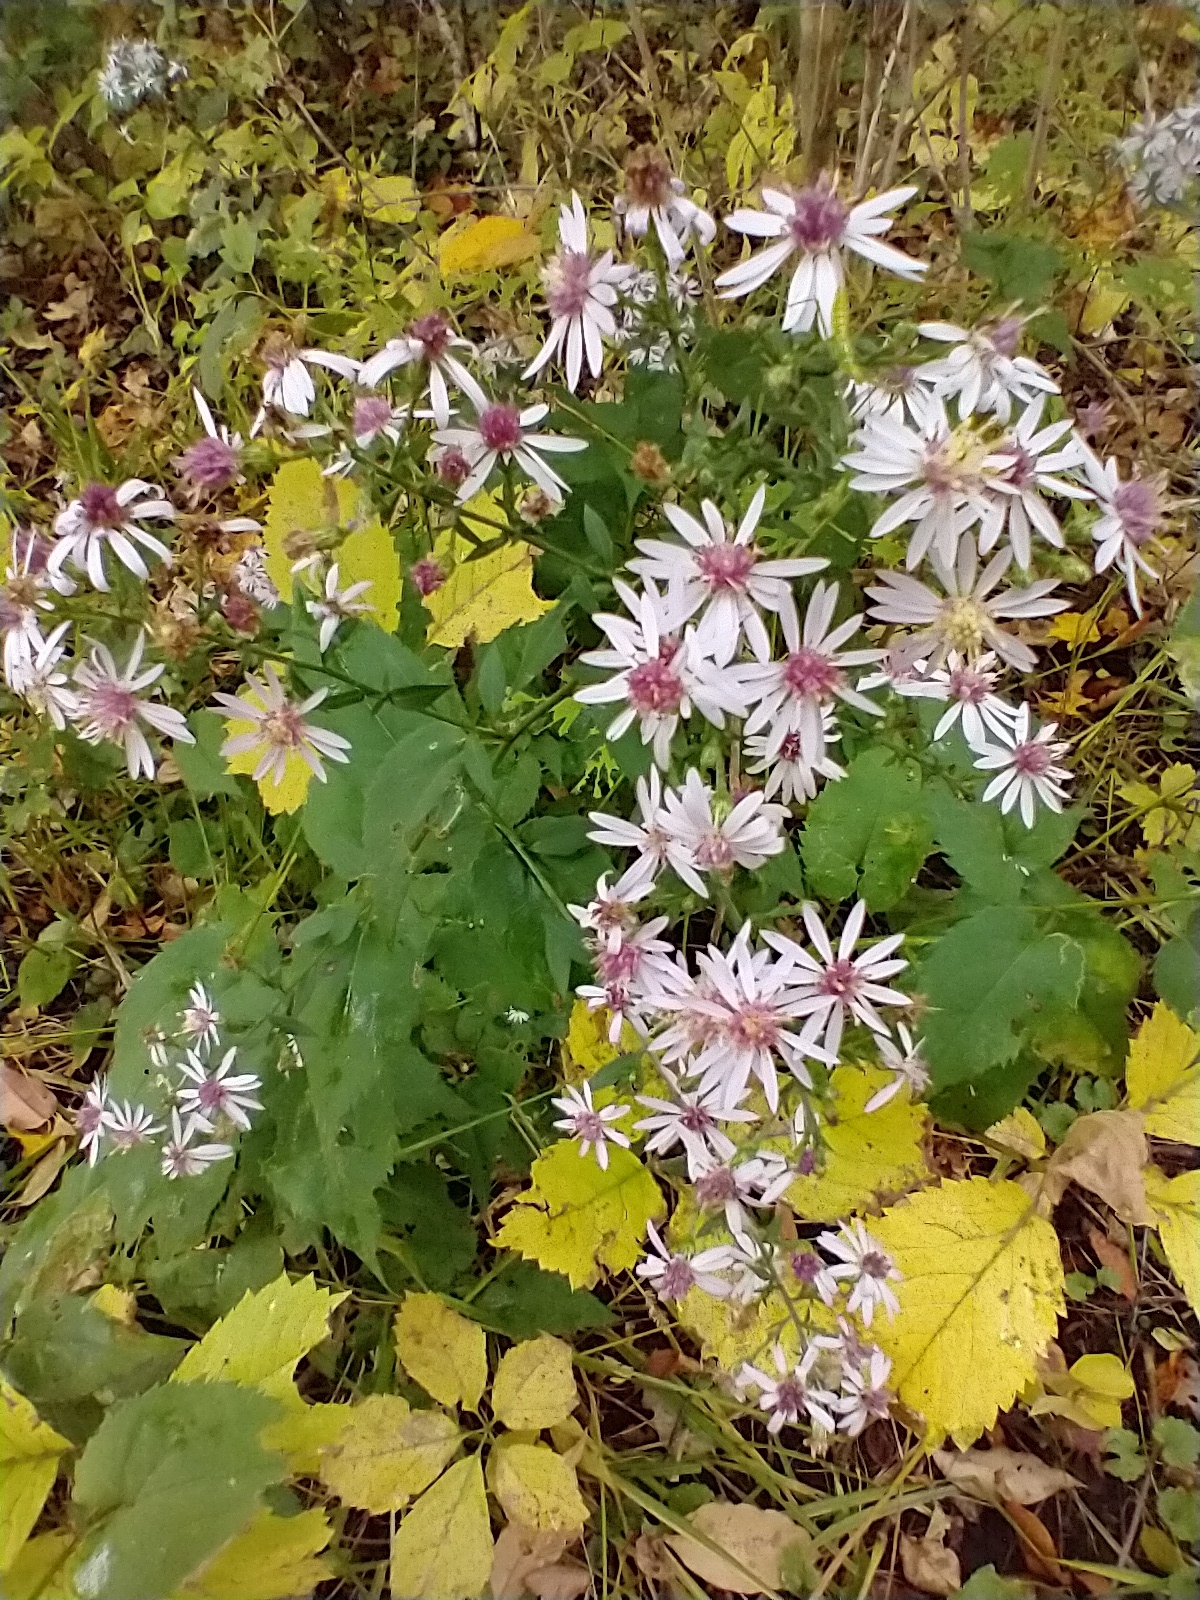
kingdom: Plantae
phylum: Tracheophyta
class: Magnoliopsida
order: Asterales
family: Asteraceae
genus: Symphyotrichum
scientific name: Symphyotrichum cordifolium
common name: Beeweed
